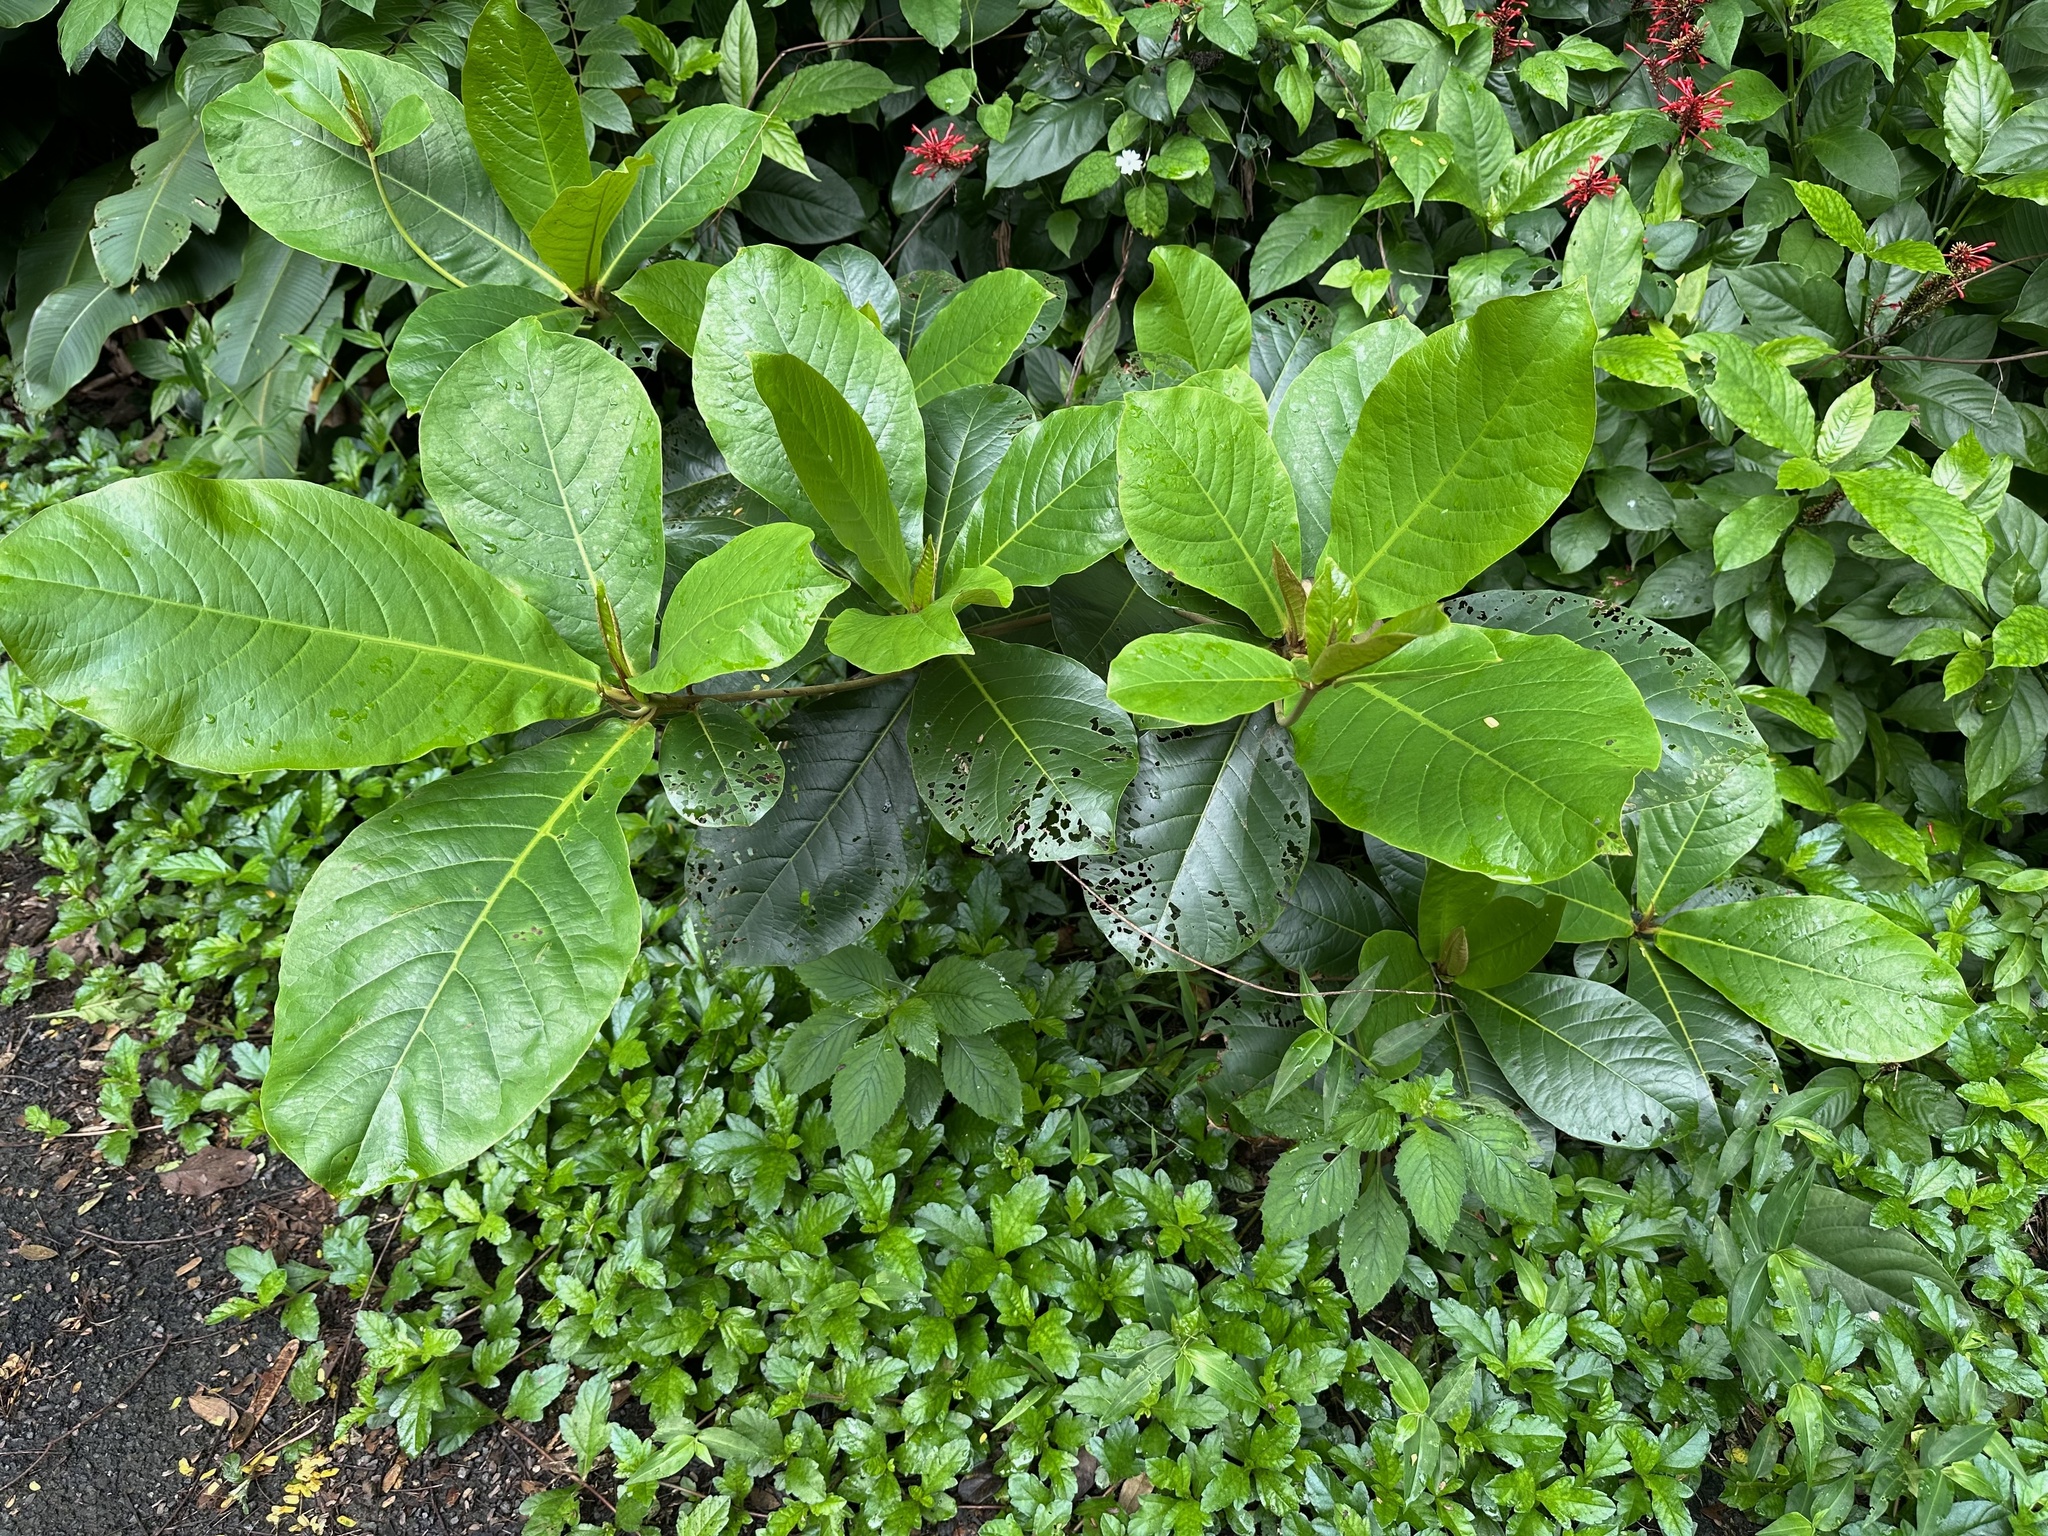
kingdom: Plantae
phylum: Tracheophyta
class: Magnoliopsida
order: Myrtales
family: Combretaceae
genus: Terminalia
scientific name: Terminalia catappa
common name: Tropical almond
